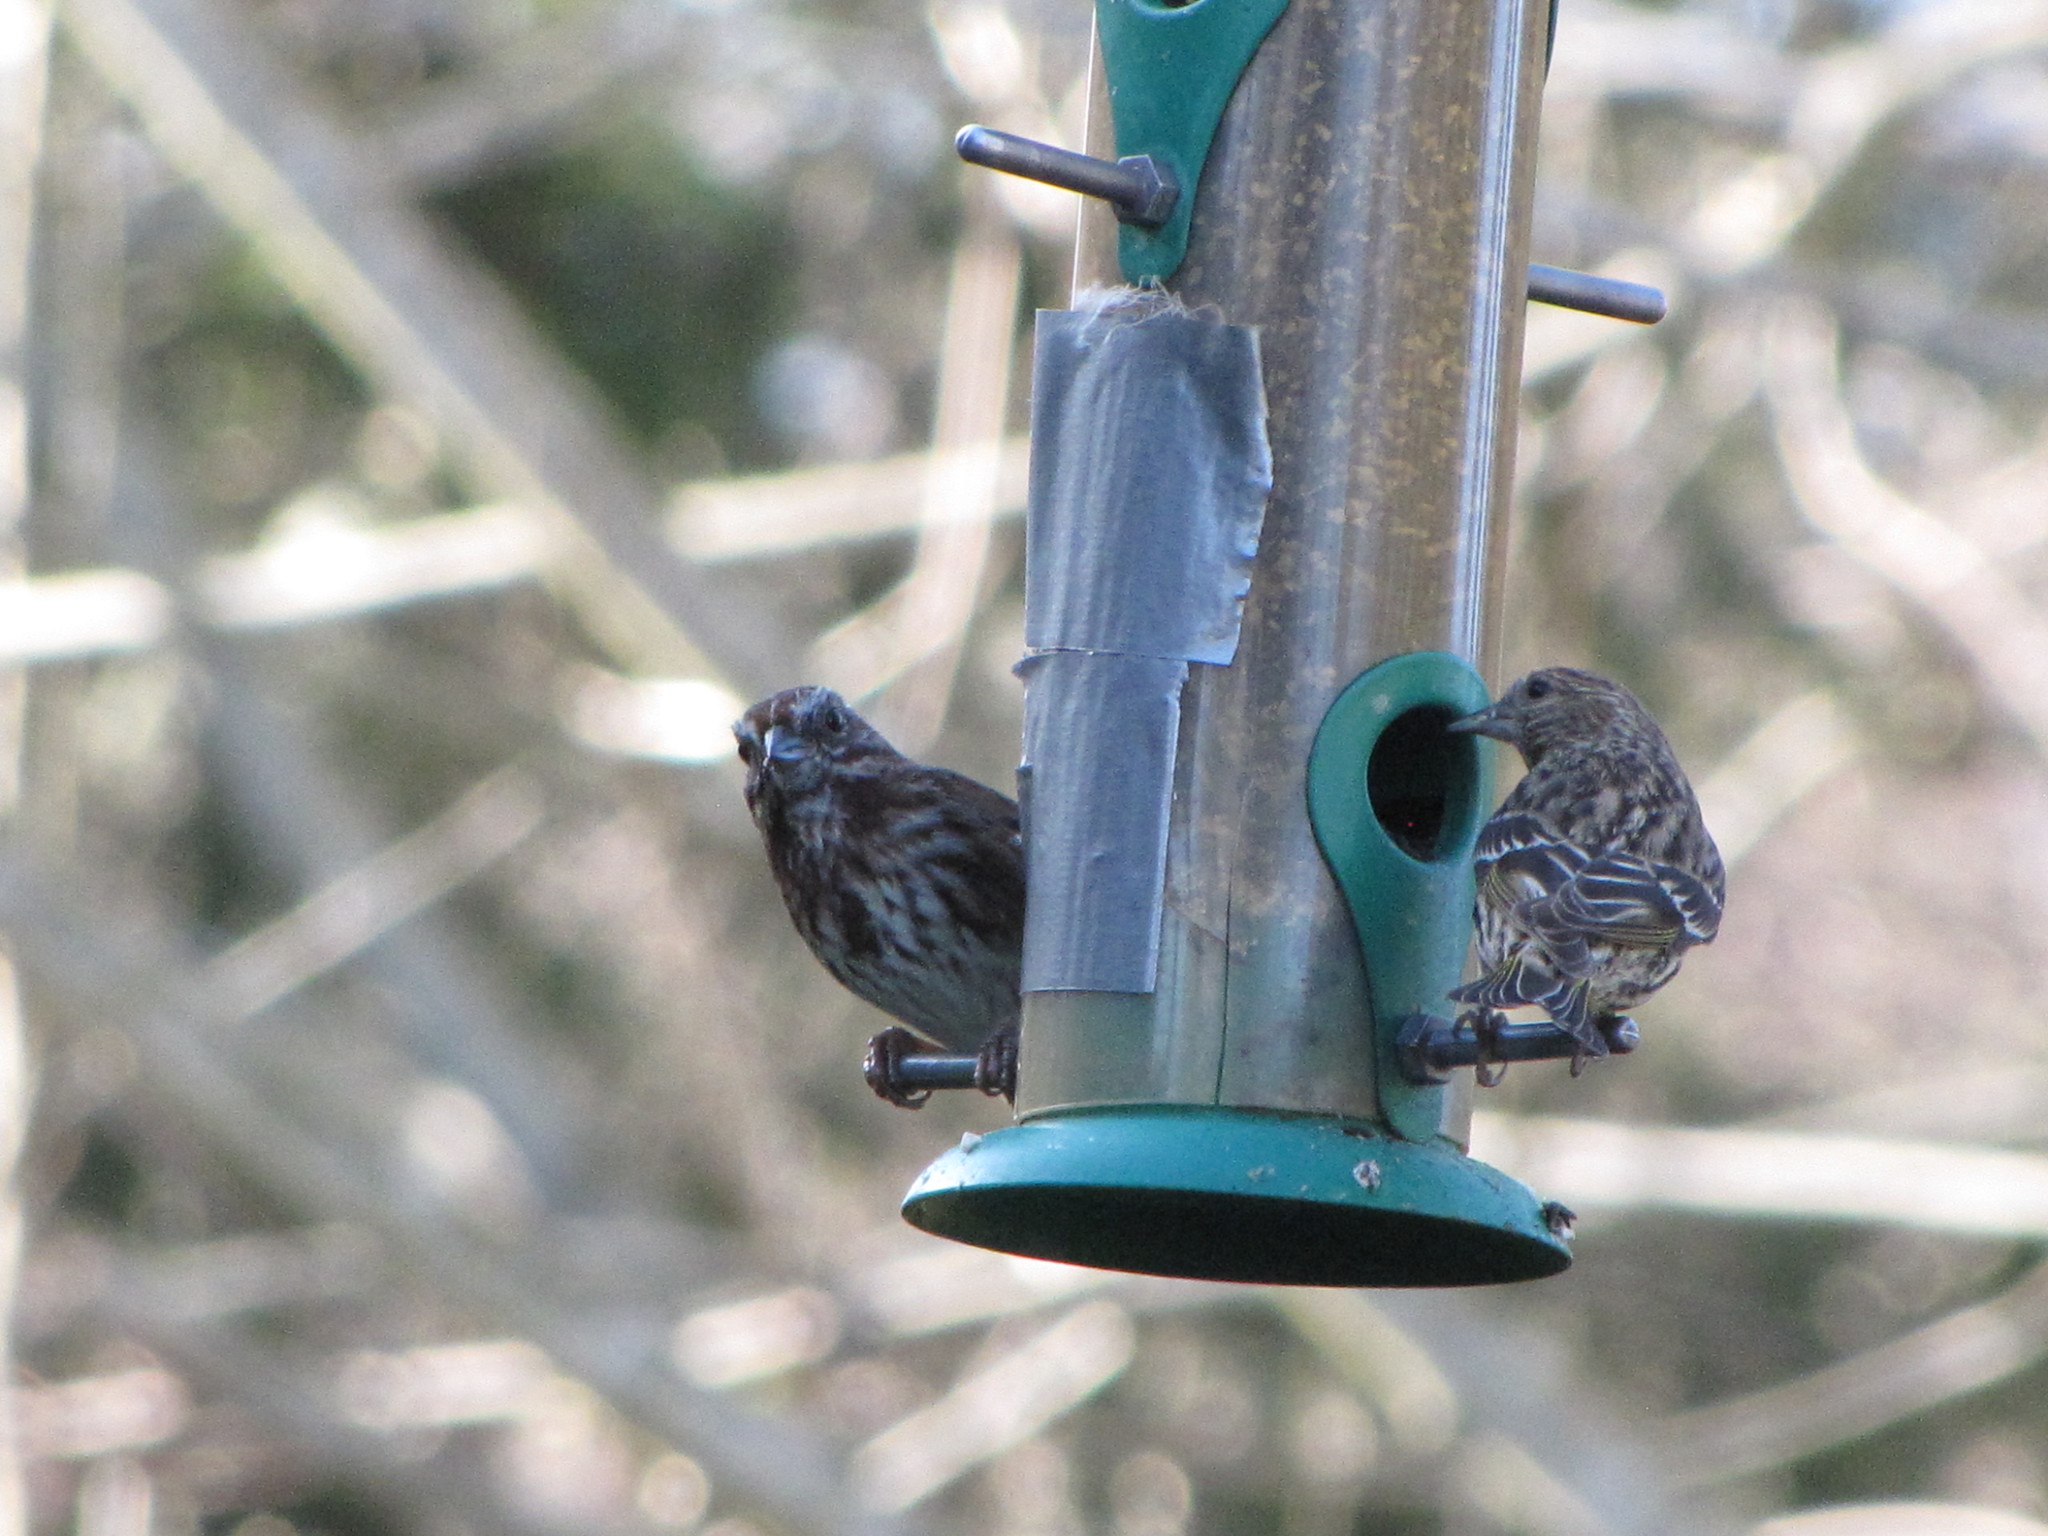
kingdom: Animalia
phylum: Chordata
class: Aves
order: Passeriformes
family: Fringillidae
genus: Spinus
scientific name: Spinus pinus
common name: Pine siskin
